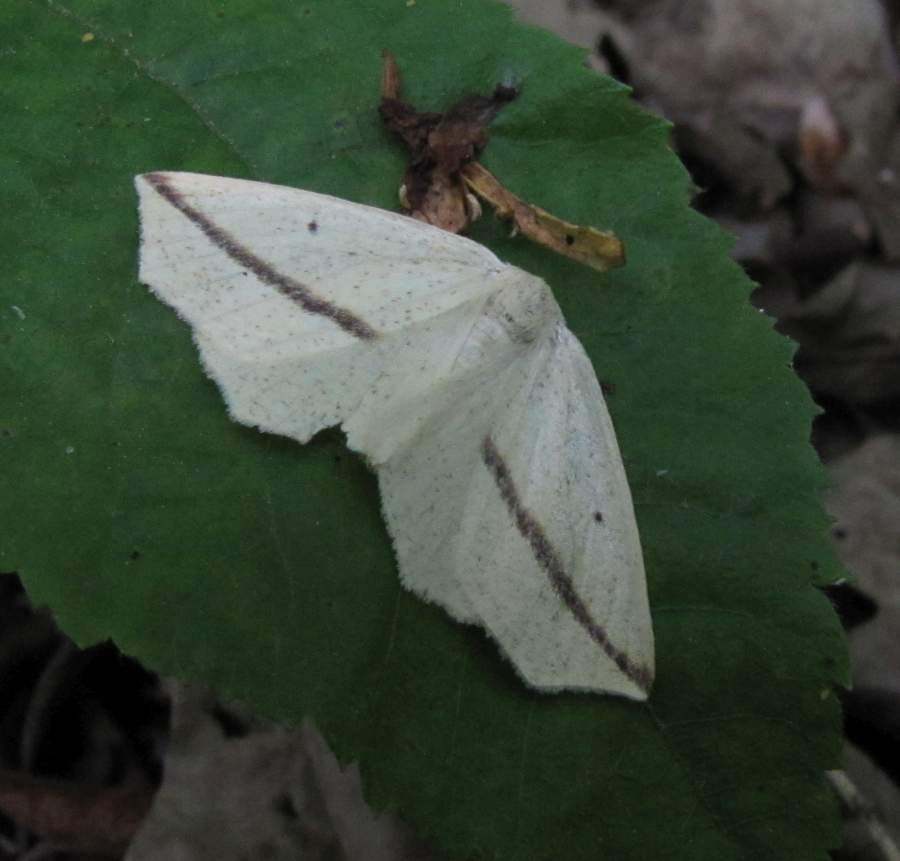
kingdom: Animalia
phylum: Arthropoda
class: Insecta
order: Lepidoptera
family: Geometridae
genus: Tetracis
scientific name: Tetracis crocallata
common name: Yellow slant-line
